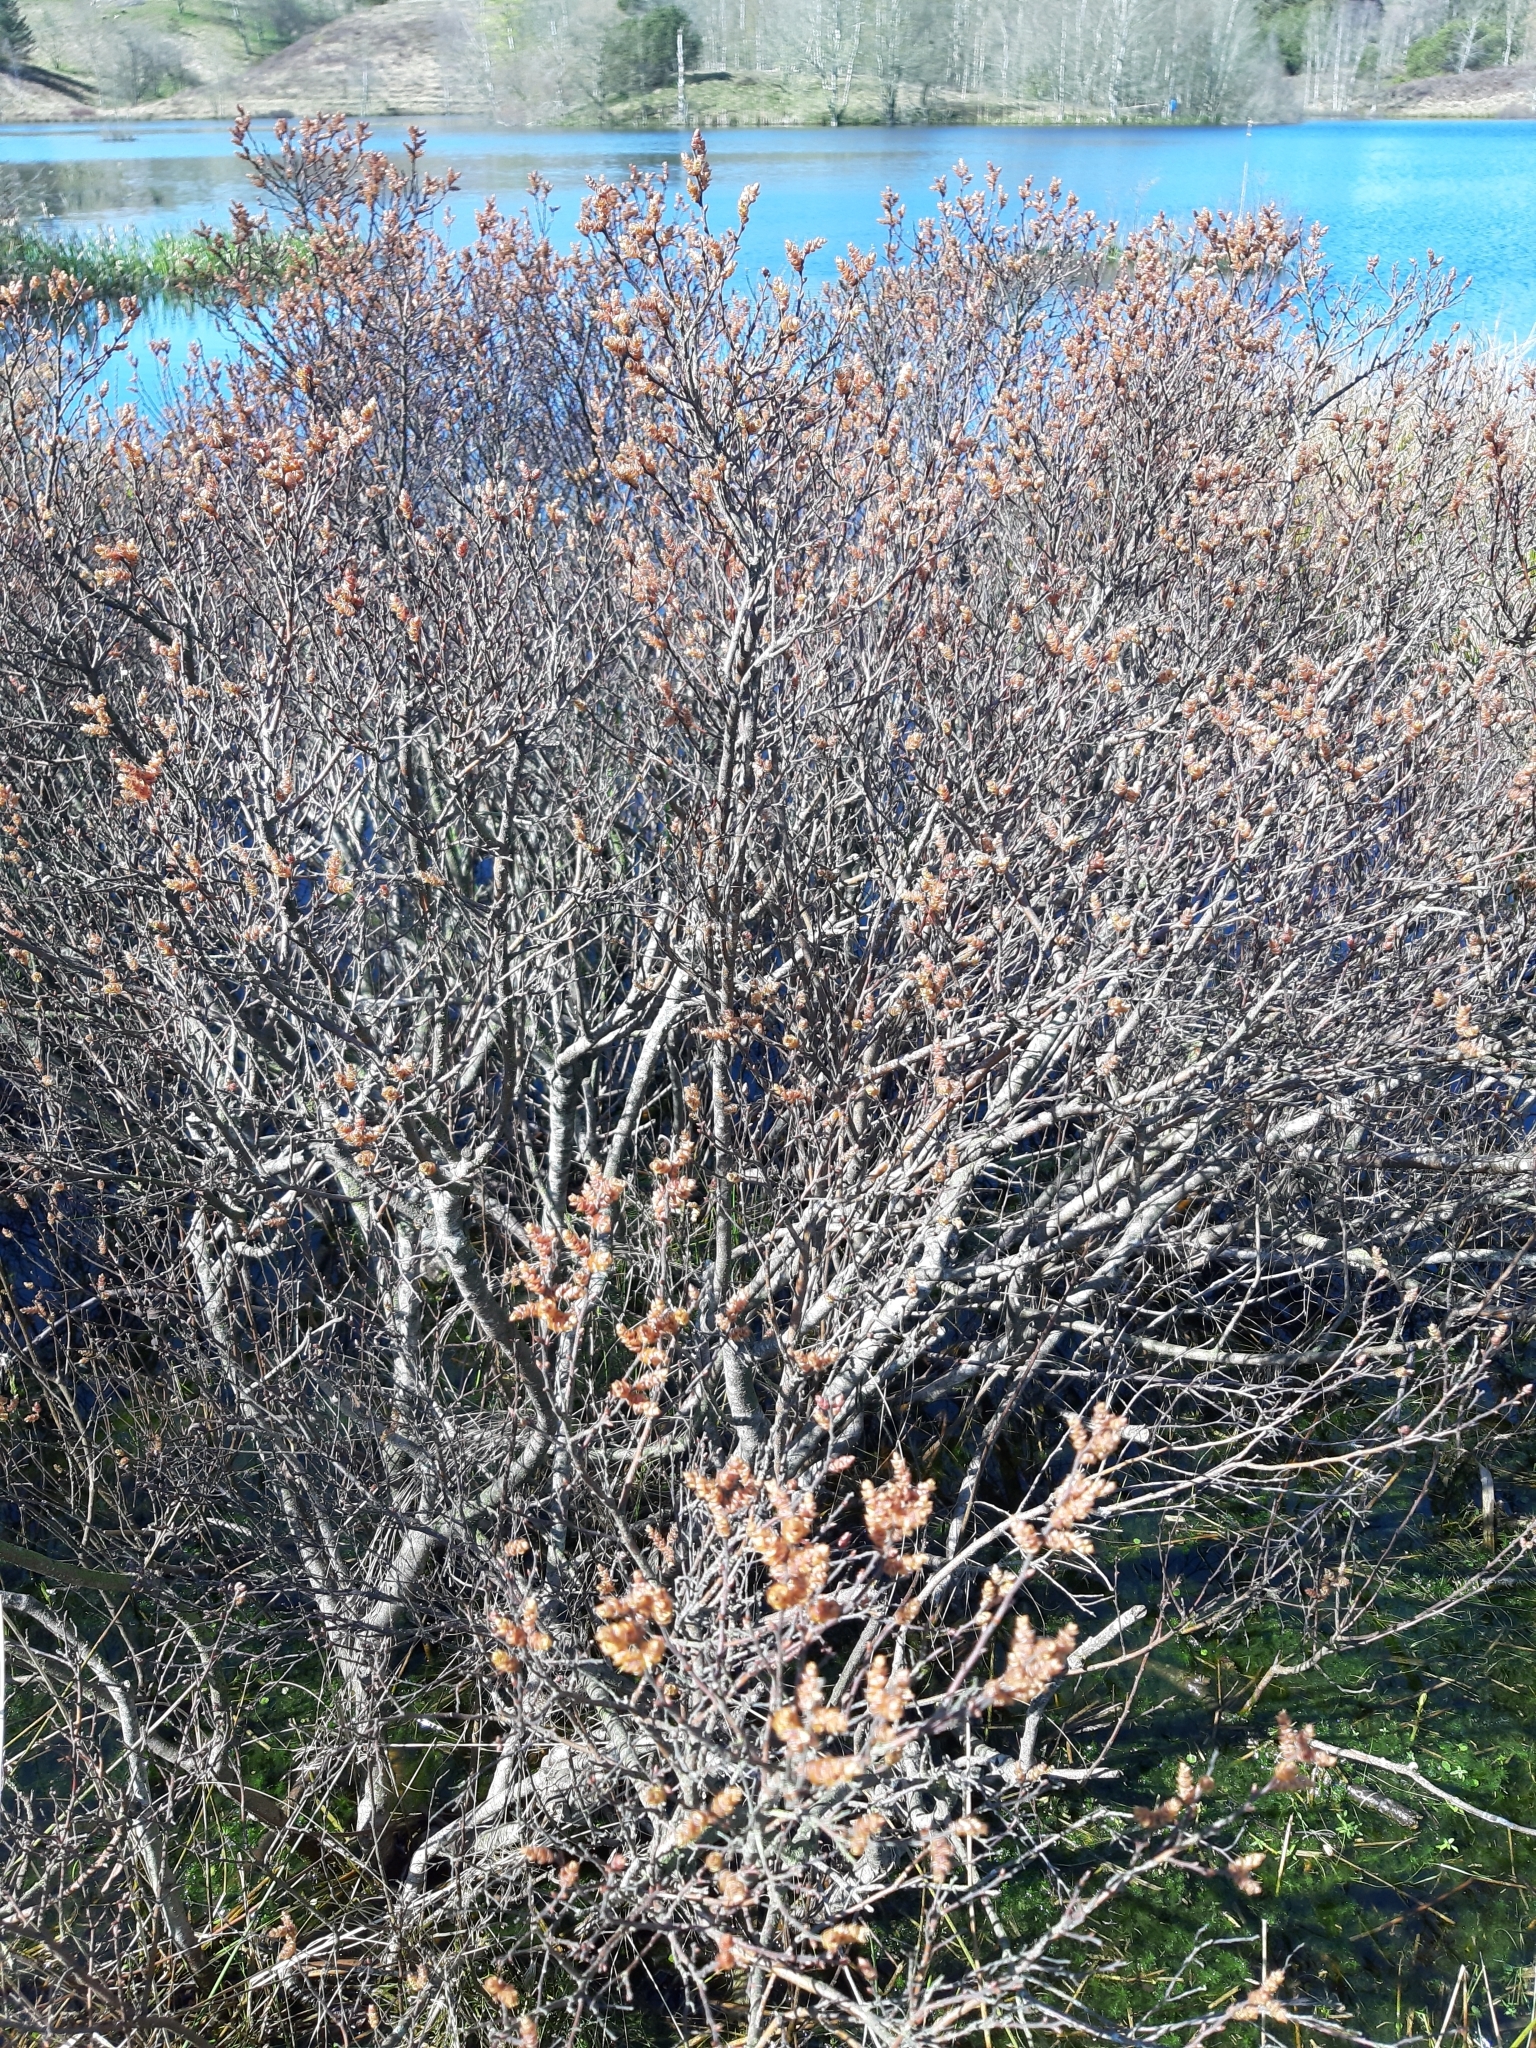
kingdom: Plantae
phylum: Tracheophyta
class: Magnoliopsida
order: Fagales
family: Myricaceae
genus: Myrica
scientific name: Myrica gale
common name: Sweet gale
